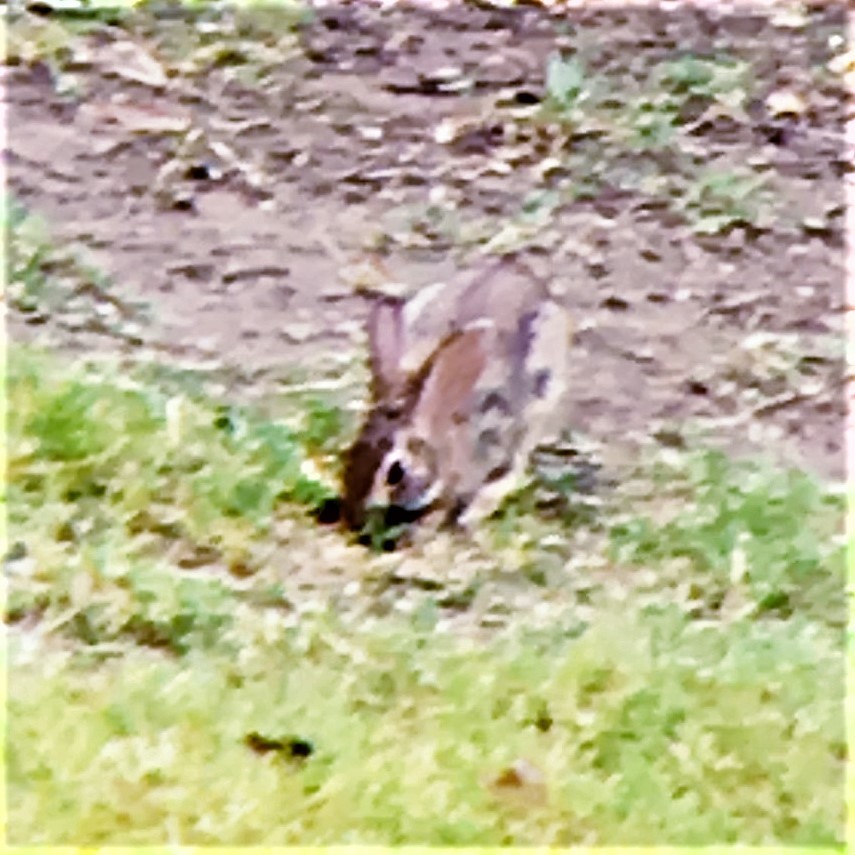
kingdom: Animalia
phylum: Chordata
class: Mammalia
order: Lagomorpha
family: Leporidae
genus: Sylvilagus
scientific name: Sylvilagus floridanus
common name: Eastern cottontail
